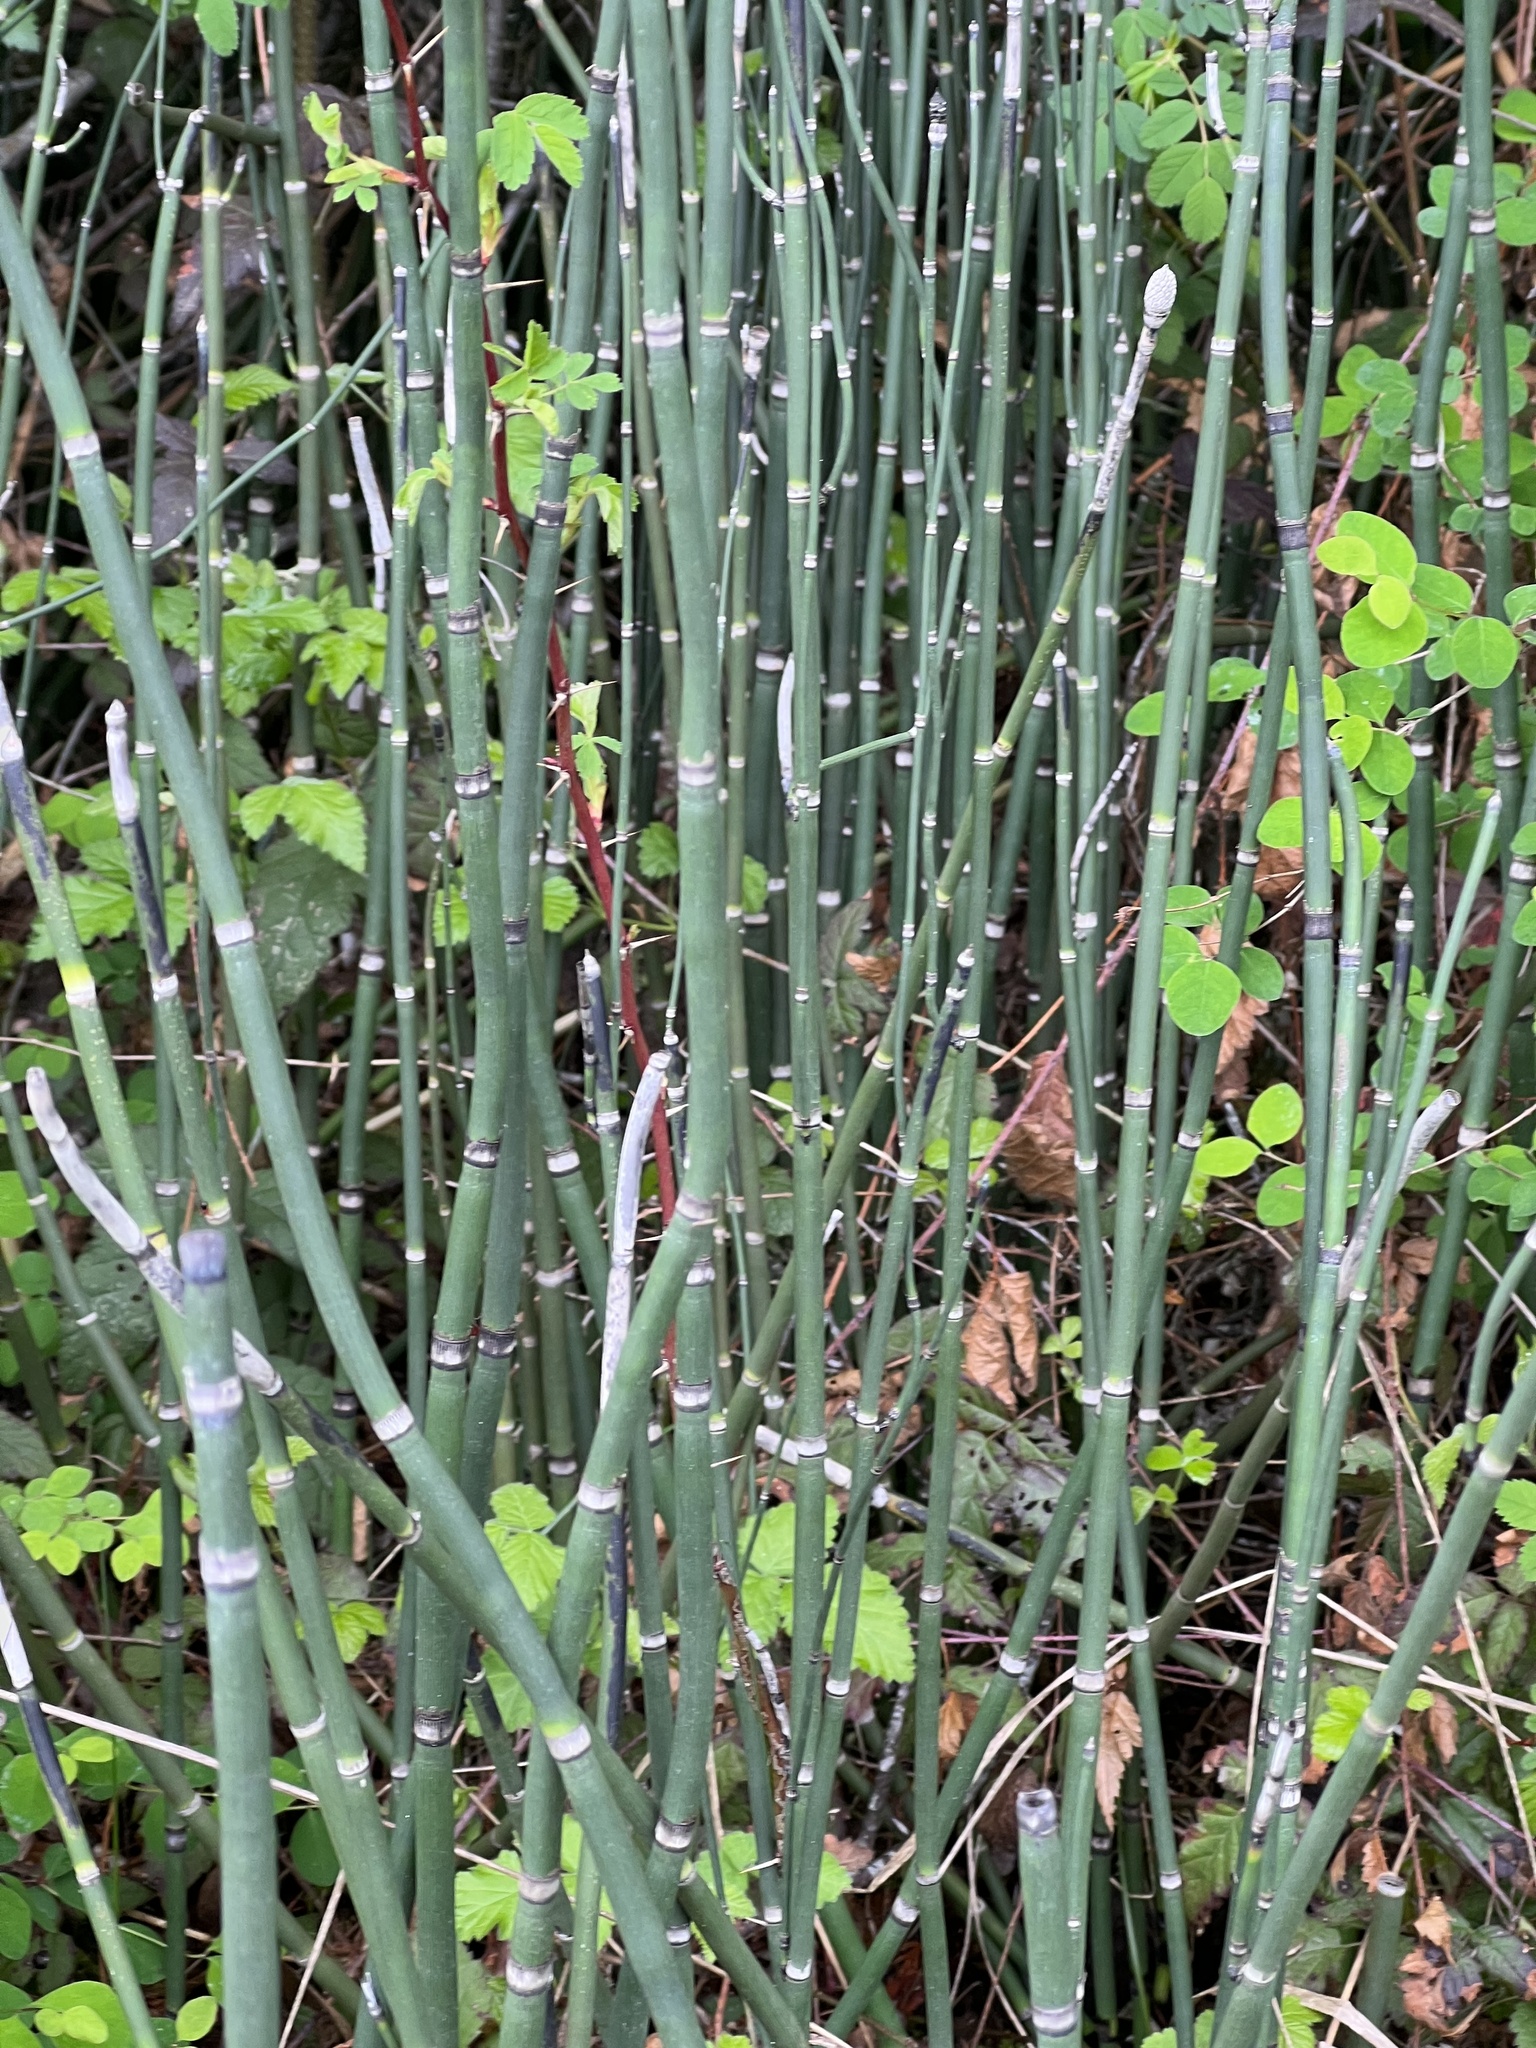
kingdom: Plantae
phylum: Tracheophyta
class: Polypodiopsida
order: Equisetales
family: Equisetaceae
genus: Equisetum
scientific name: Equisetum praealtum
